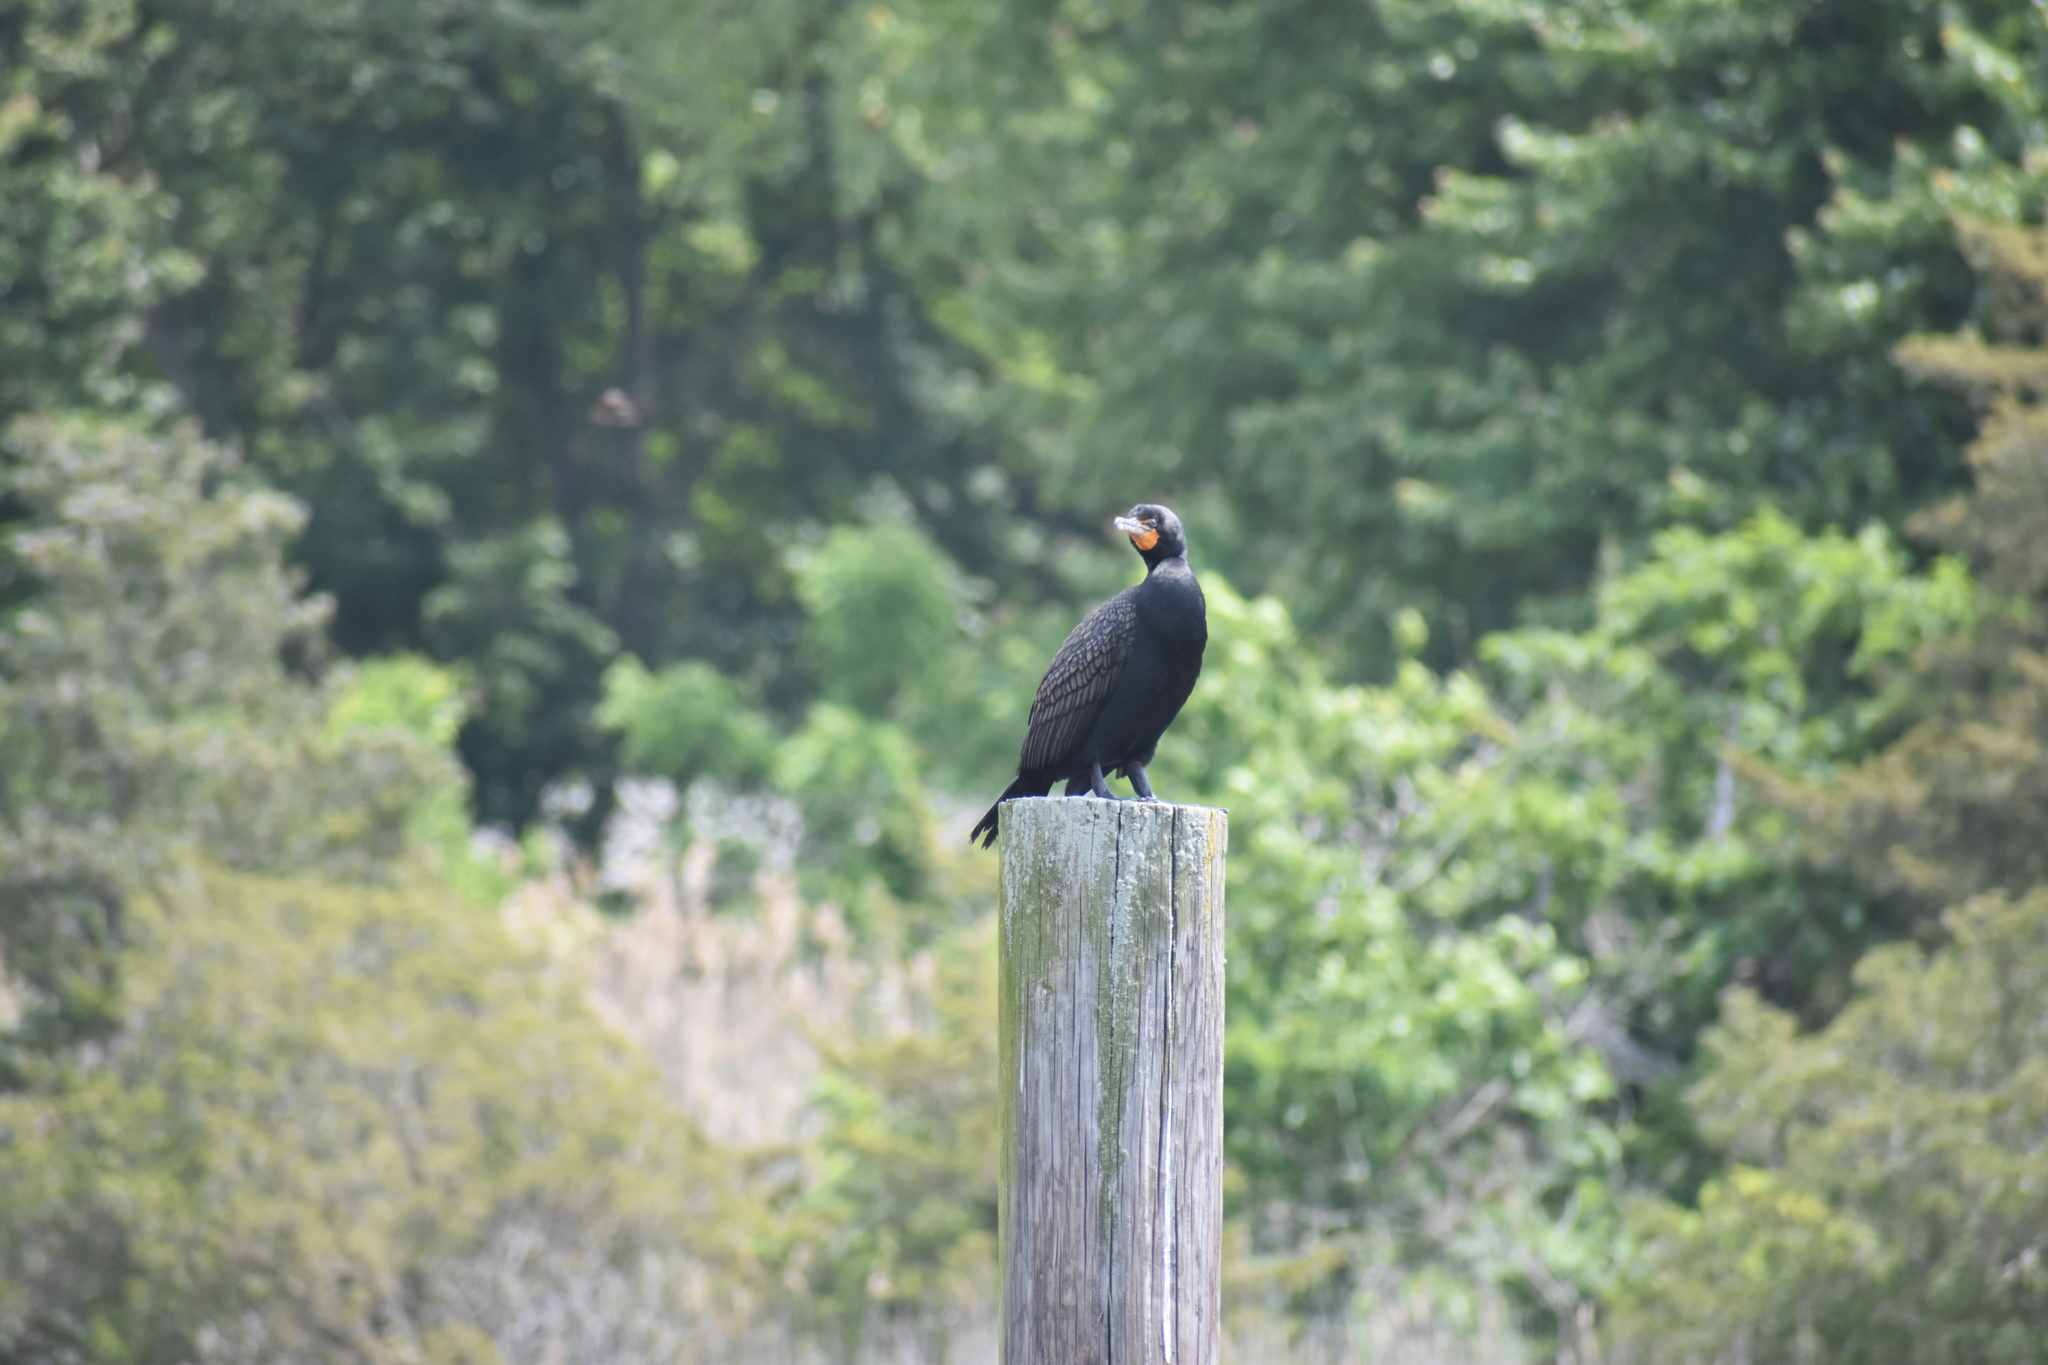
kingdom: Animalia
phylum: Chordata
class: Aves
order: Suliformes
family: Phalacrocoracidae
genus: Phalacrocorax
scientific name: Phalacrocorax auritus
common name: Double-crested cormorant
